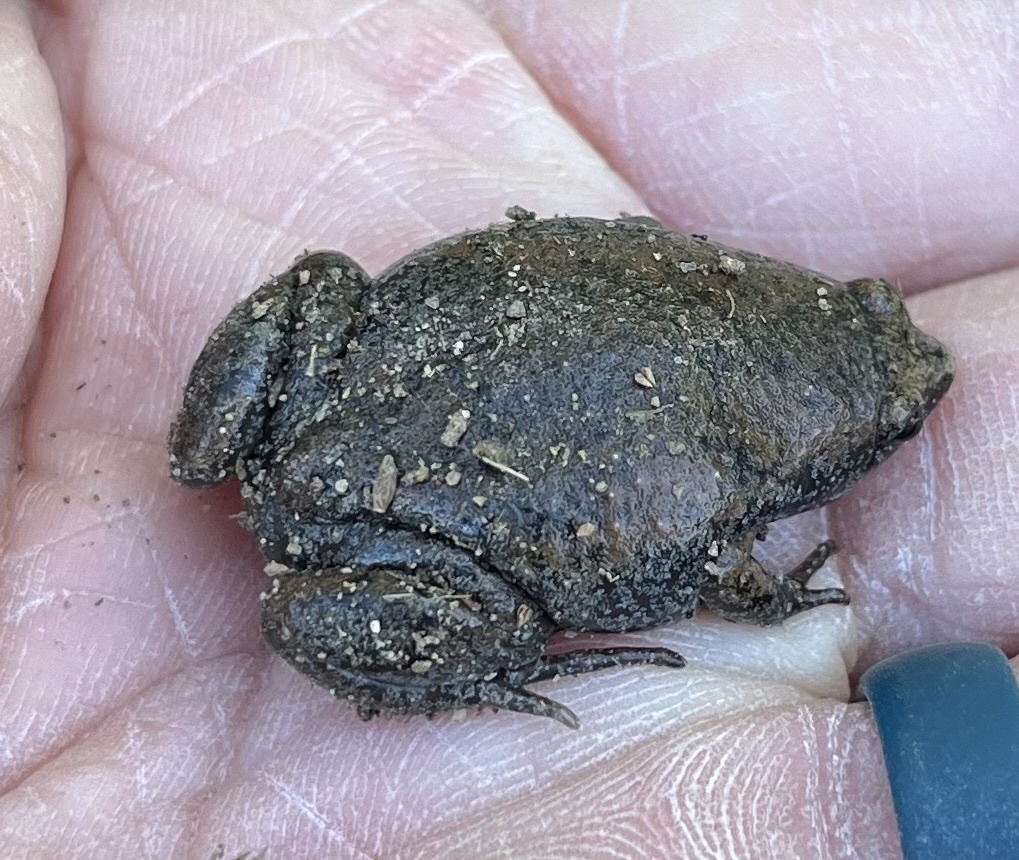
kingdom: Animalia
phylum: Chordata
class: Amphibia
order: Anura
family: Microhylidae
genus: Gastrophryne
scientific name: Gastrophryne carolinensis
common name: Eastern narrowmouth toad
